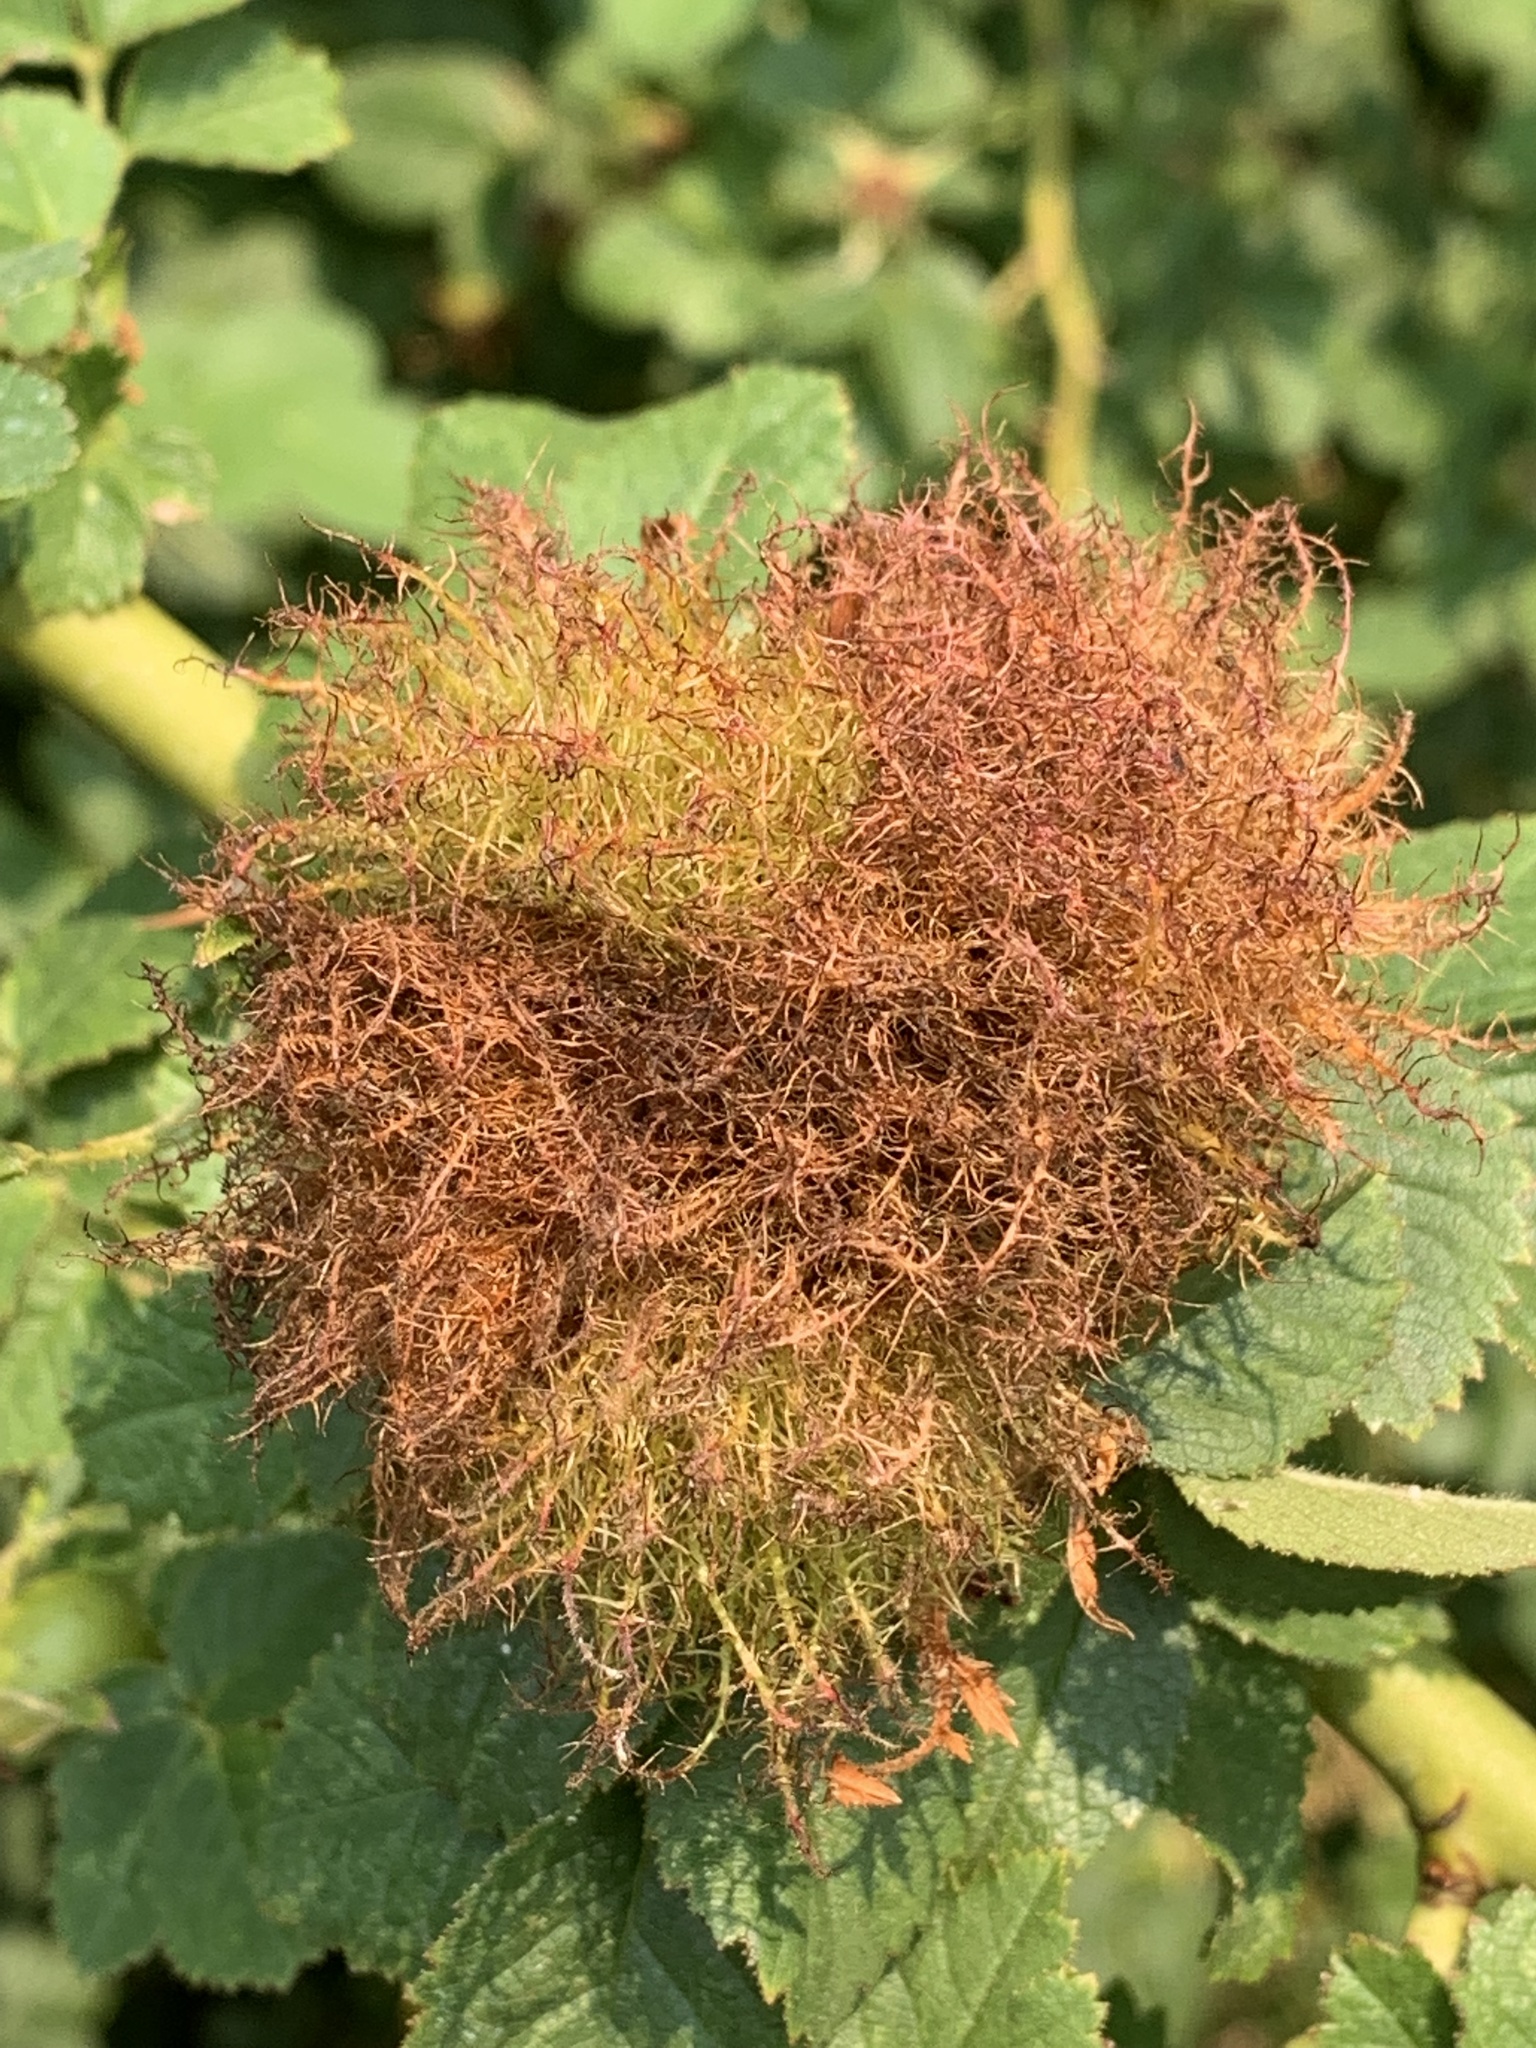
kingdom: Animalia
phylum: Arthropoda
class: Insecta
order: Hymenoptera
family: Cynipidae
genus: Diplolepis
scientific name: Diplolepis rosae
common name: Bedeguar gall
